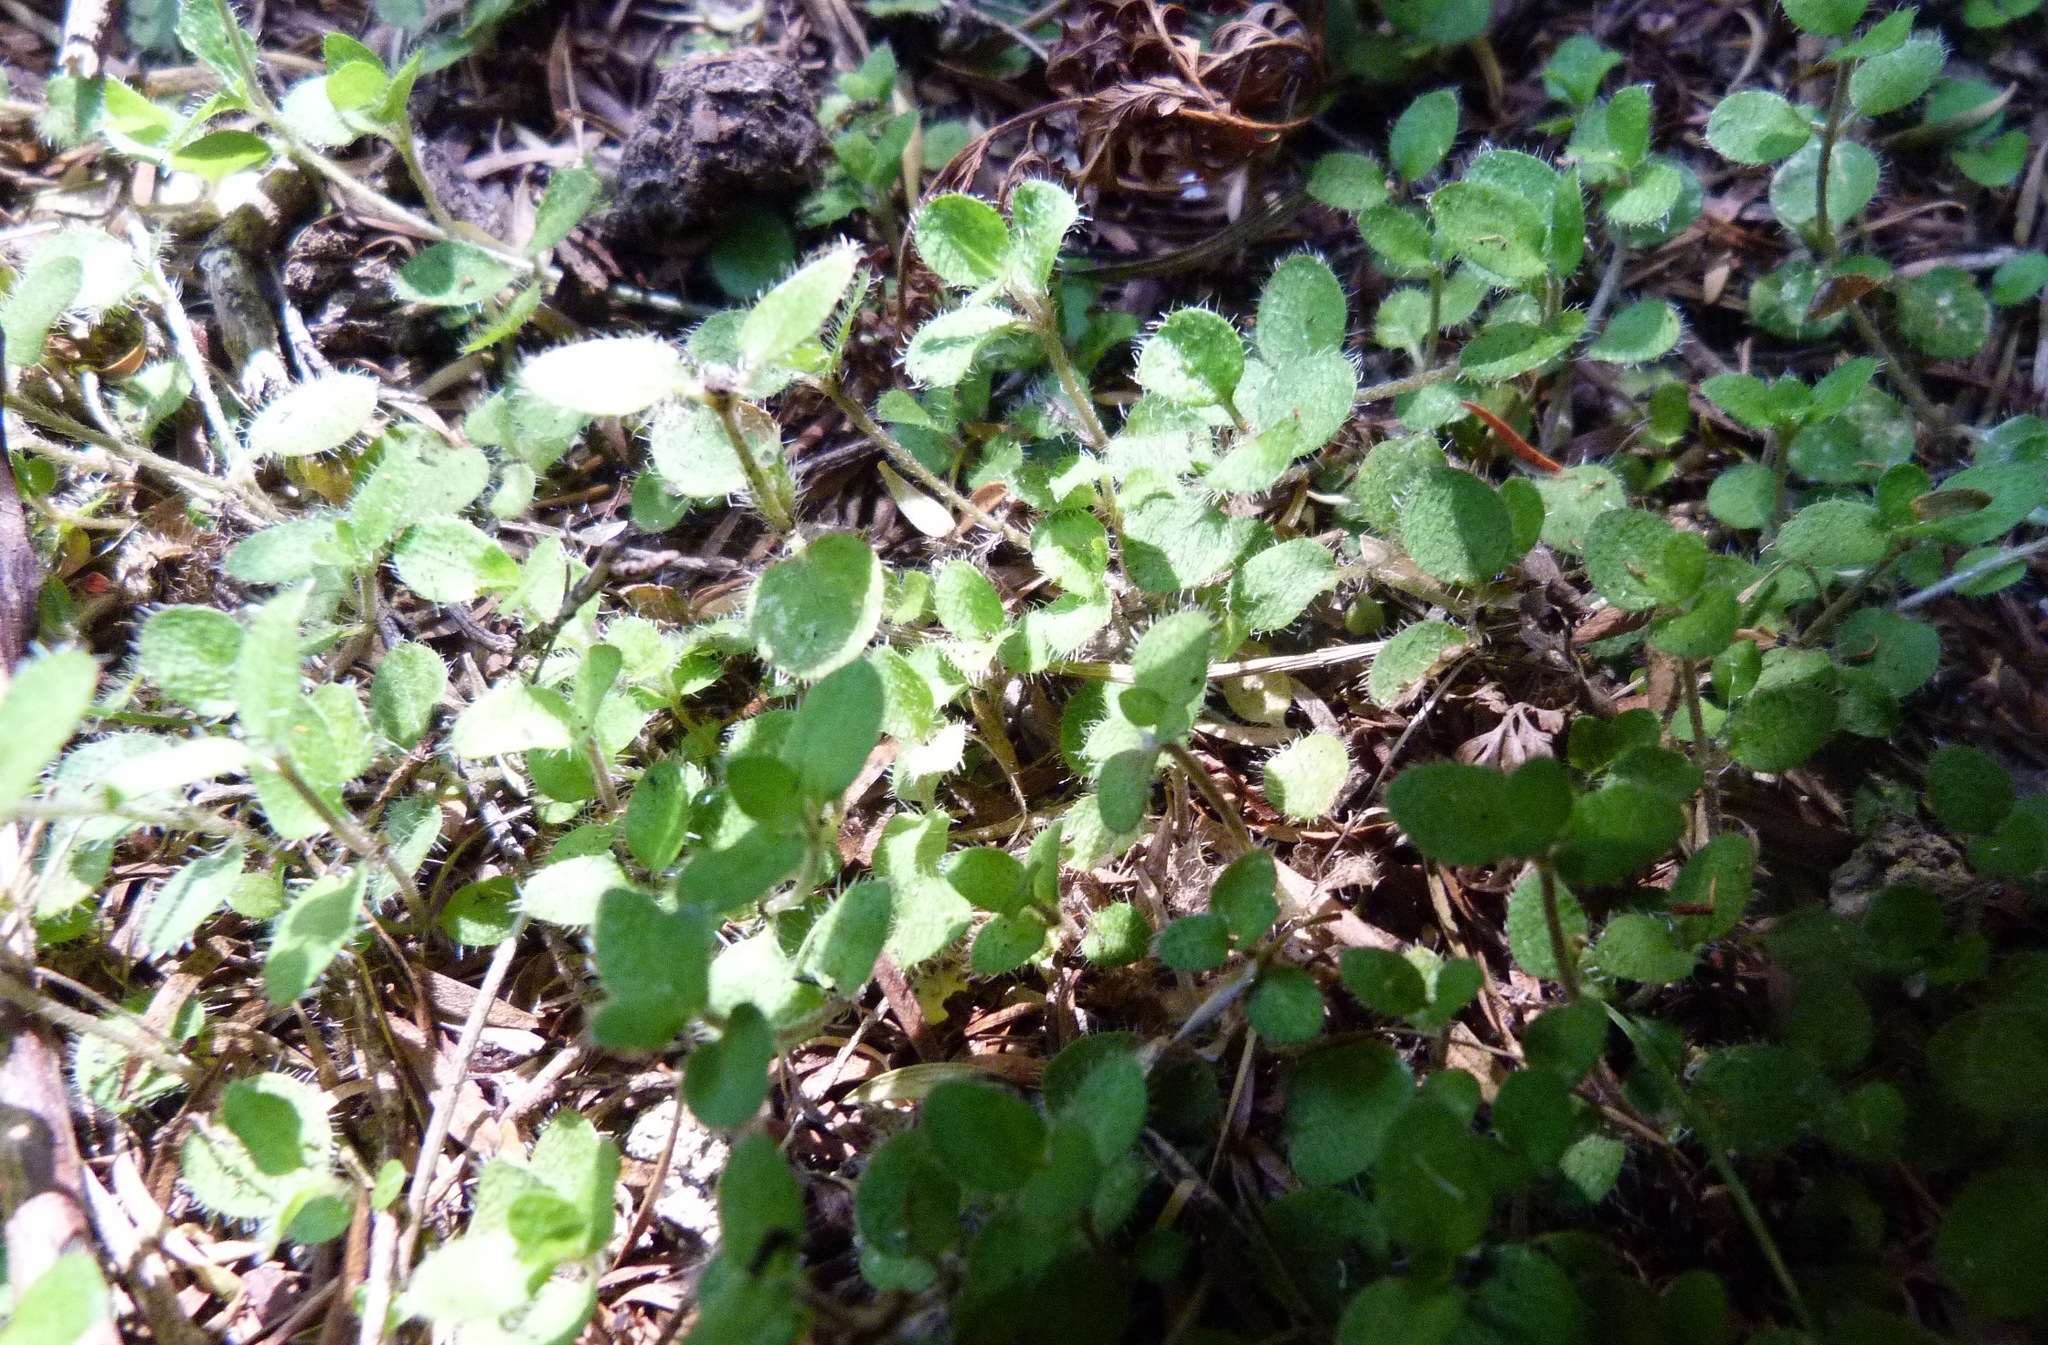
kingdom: Plantae
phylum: Tracheophyta
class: Magnoliopsida
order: Gentianales
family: Rubiaceae
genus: Leptostigma
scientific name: Leptostigma setulosum
